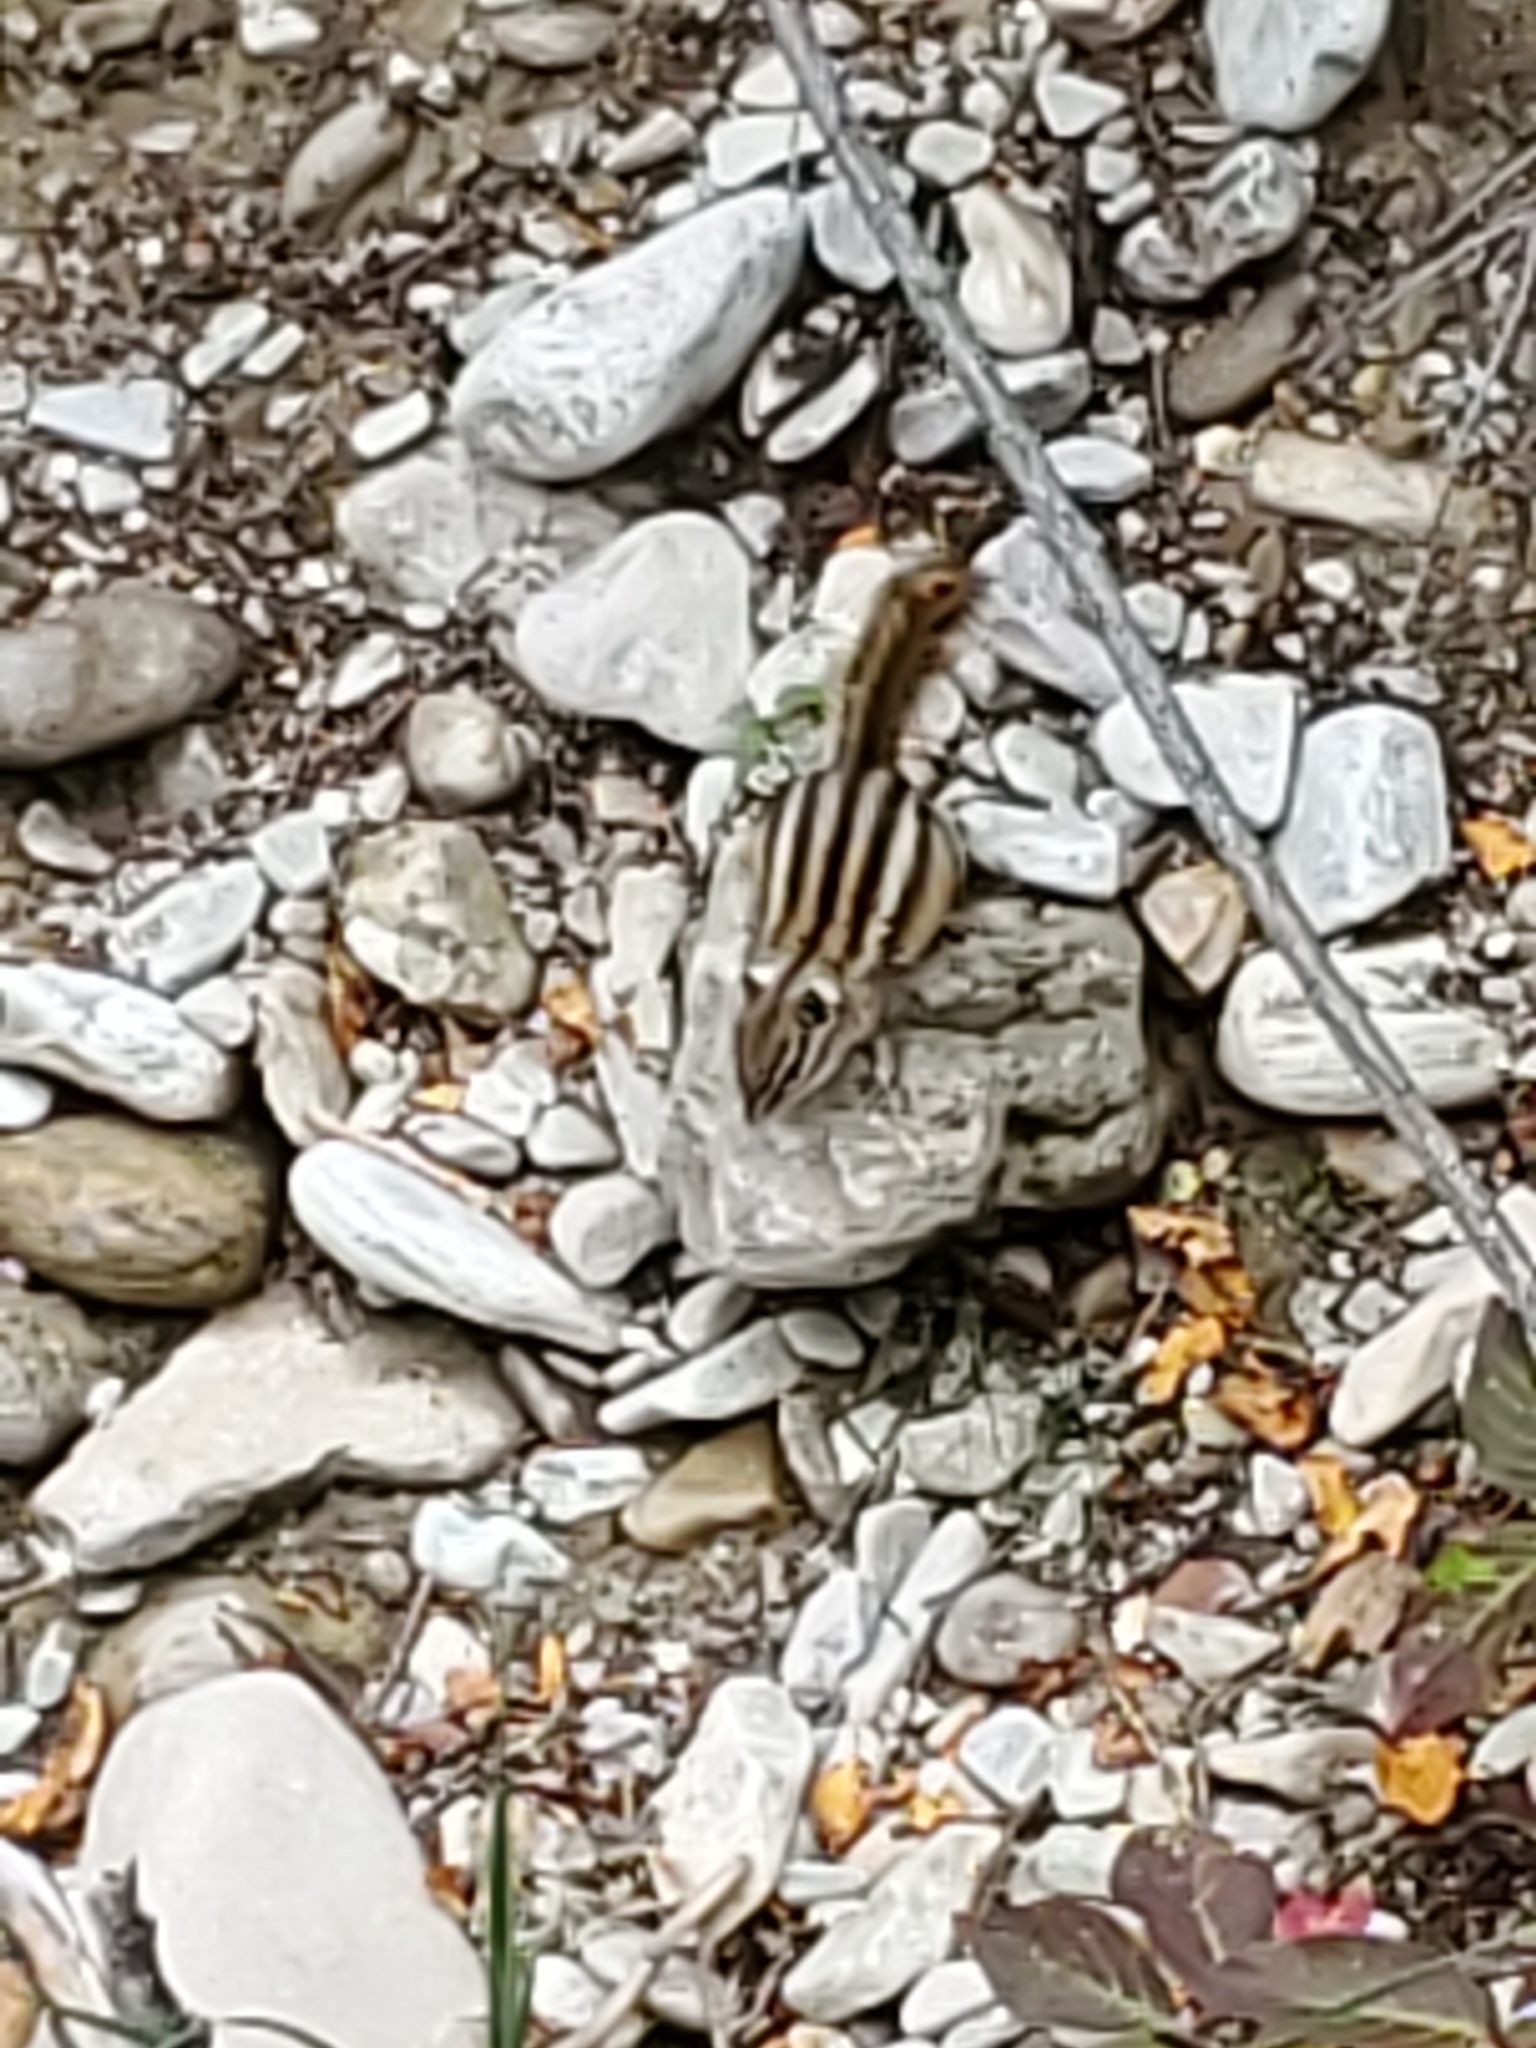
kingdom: Animalia
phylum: Chordata
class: Mammalia
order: Rodentia
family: Sciuridae
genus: Tamias
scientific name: Tamias minimus
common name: Least chipmunk
